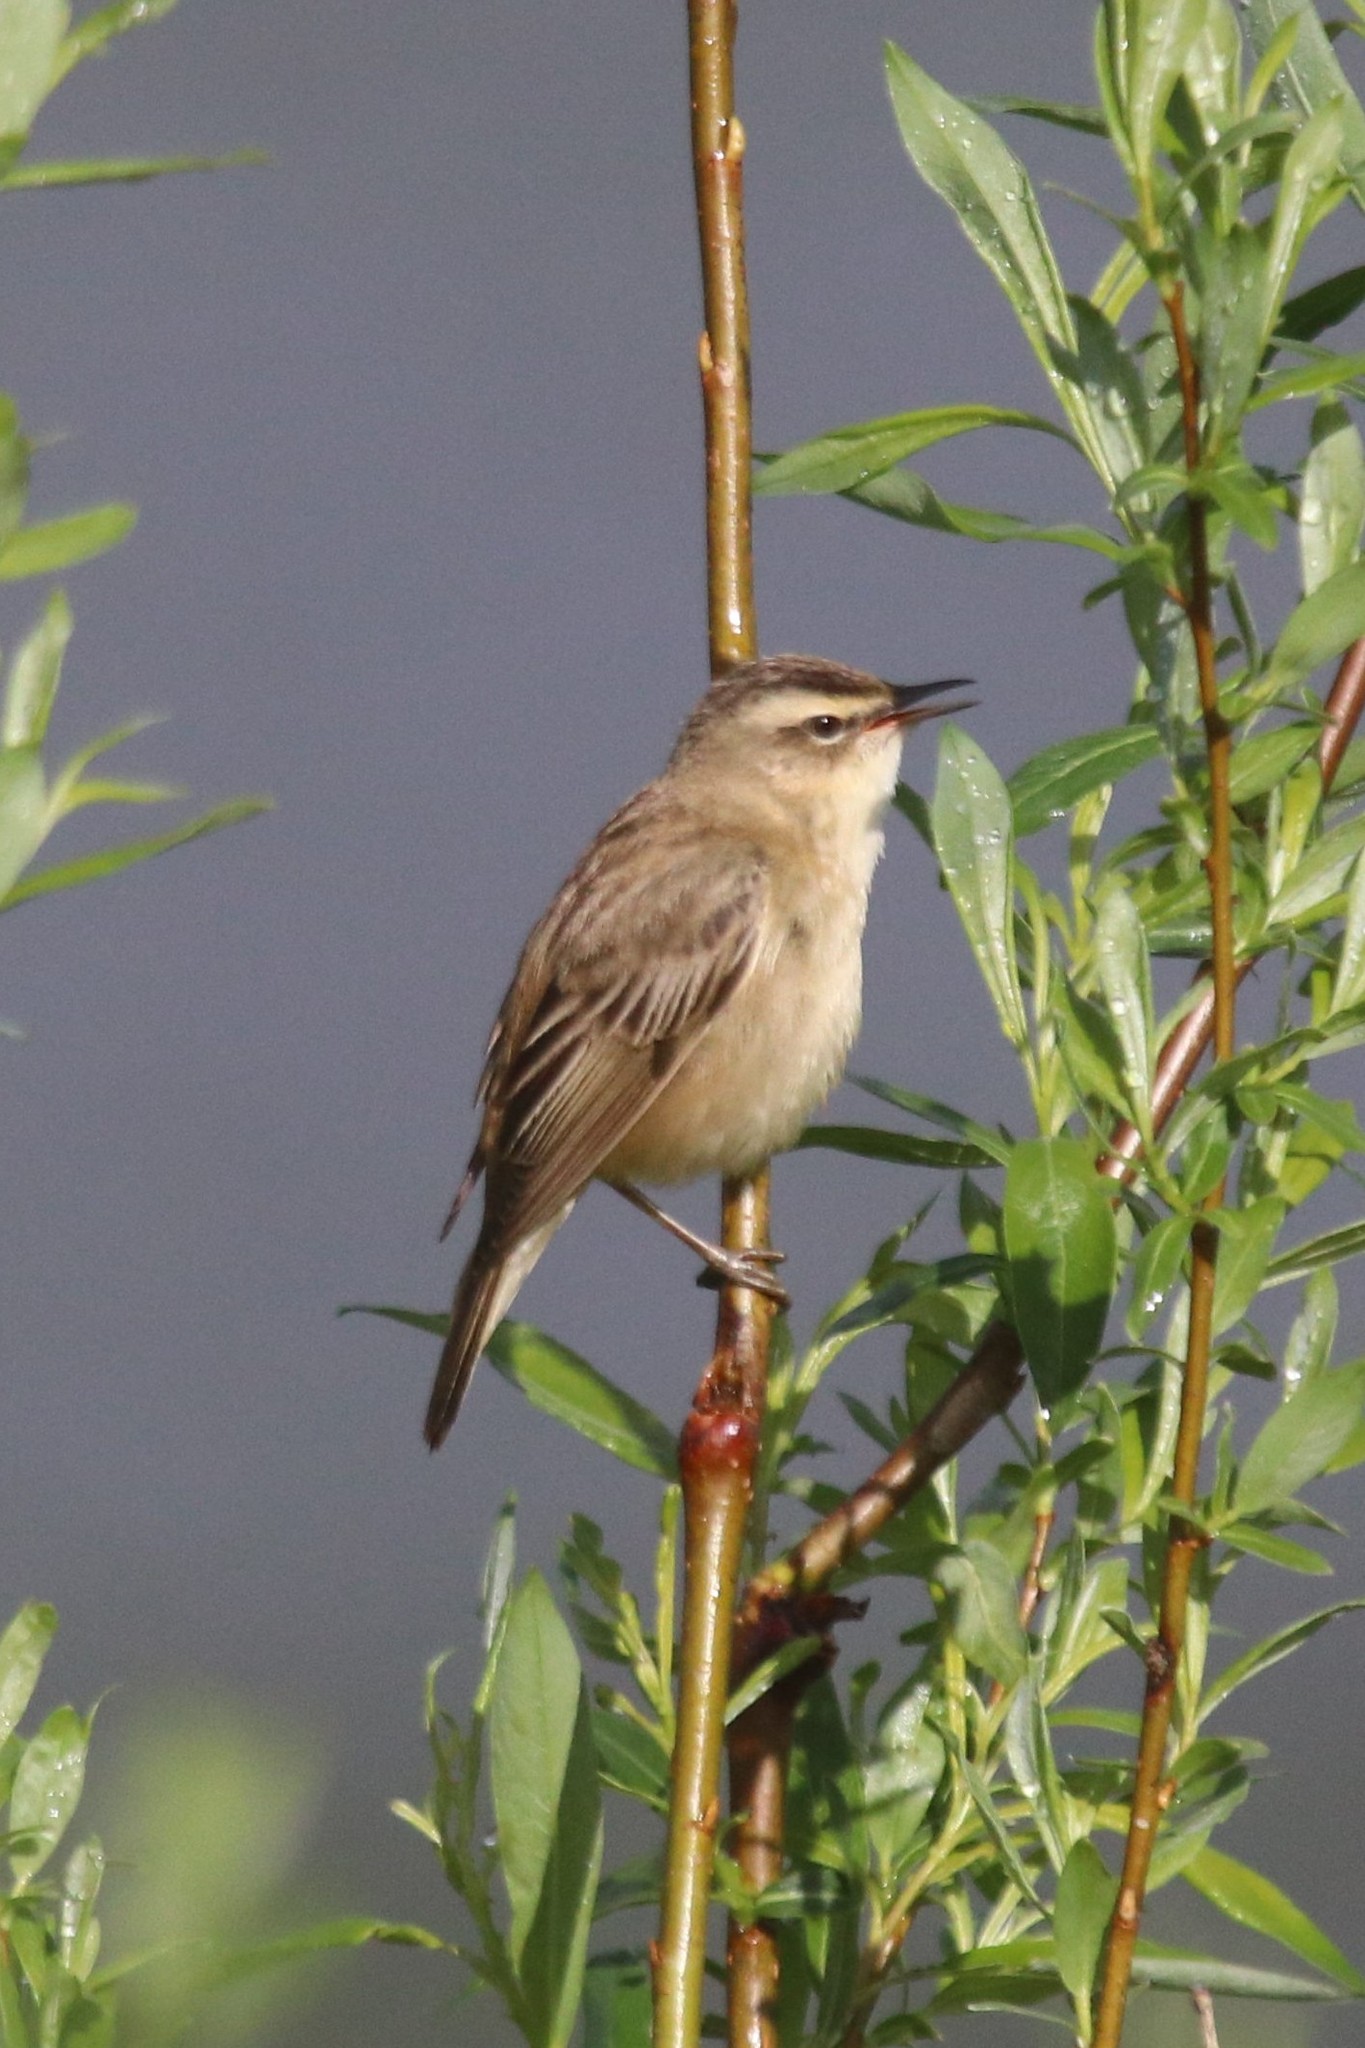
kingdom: Animalia
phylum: Chordata
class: Aves
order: Passeriformes
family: Acrocephalidae
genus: Acrocephalus
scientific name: Acrocephalus schoenobaenus
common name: Sedge warbler
